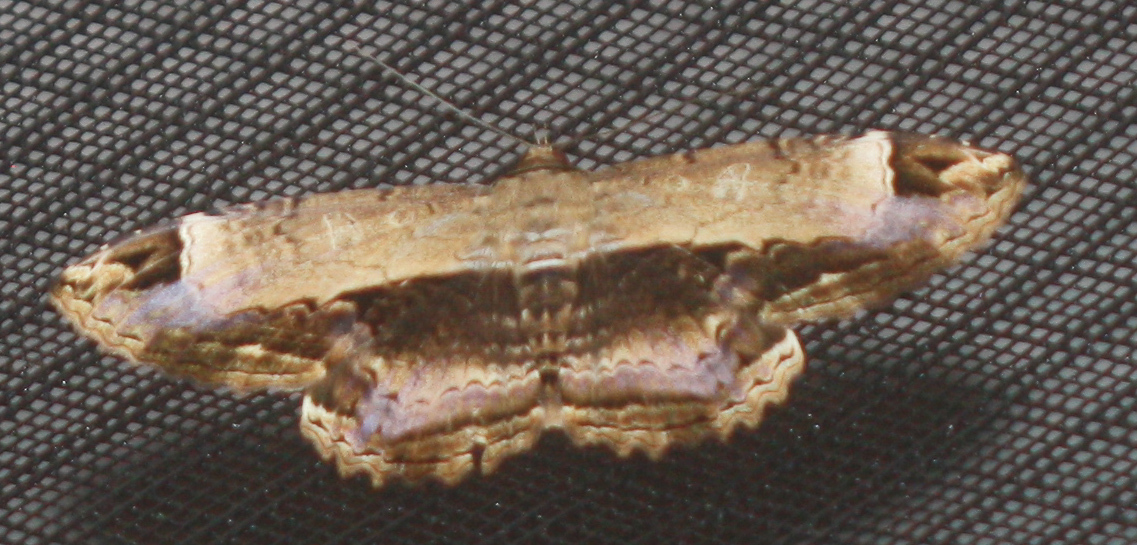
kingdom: Animalia
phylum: Arthropoda
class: Insecta
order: Lepidoptera
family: Noctuidae
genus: Ronania
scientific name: Ronania
